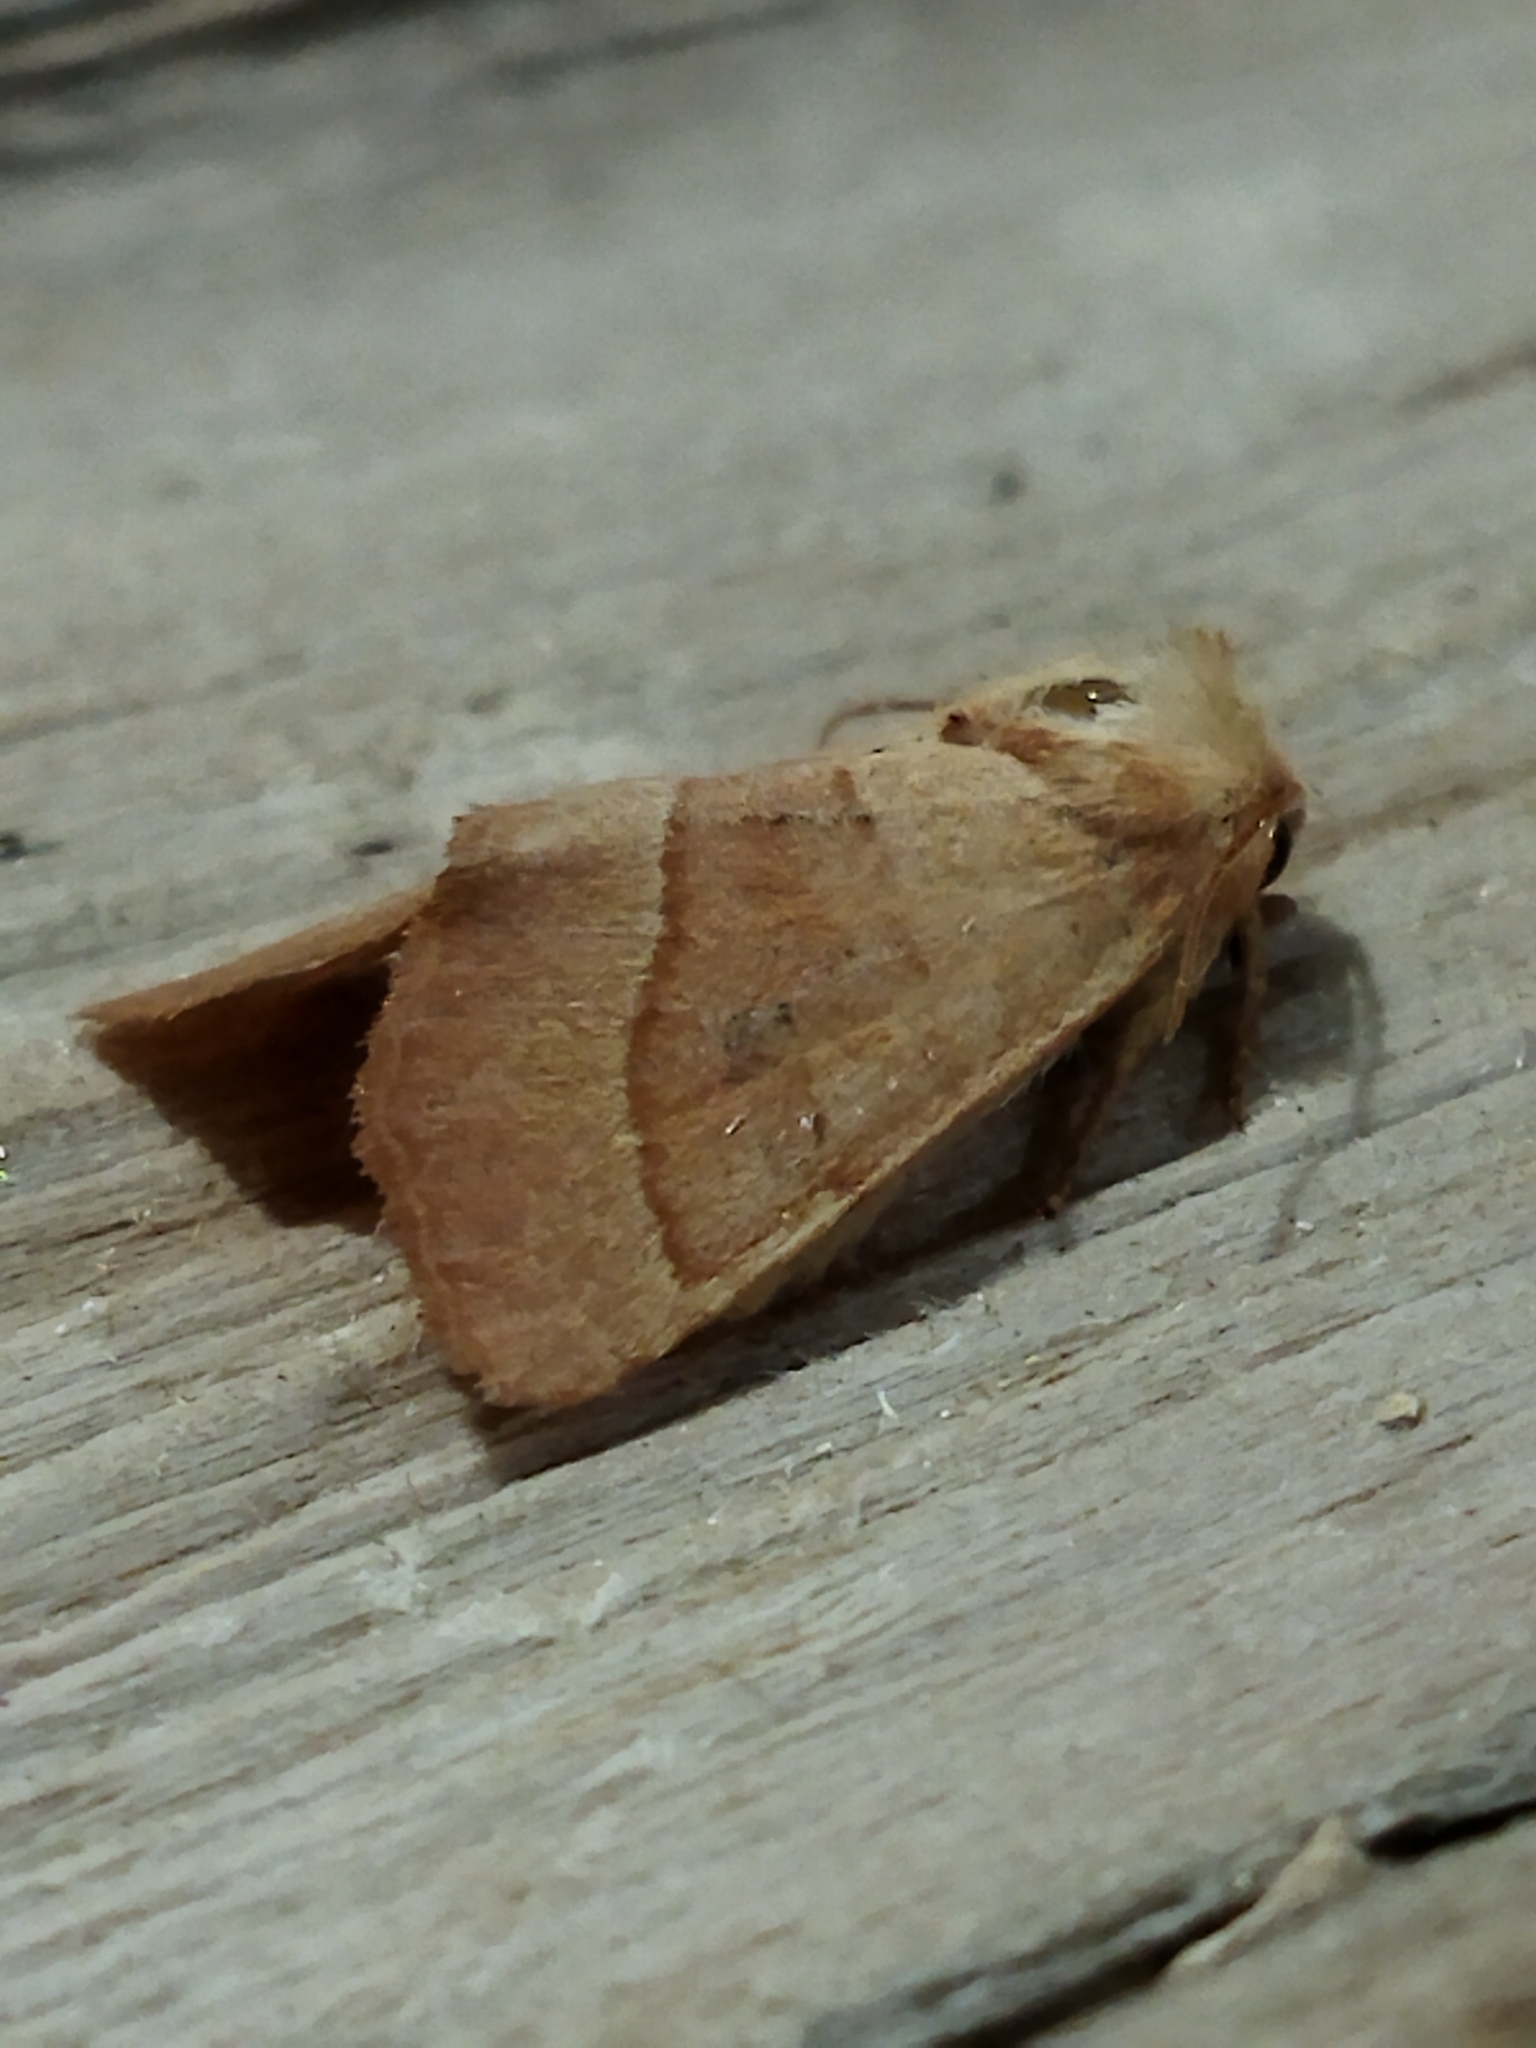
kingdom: Animalia
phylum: Arthropoda
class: Insecta
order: Lepidoptera
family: Noctuidae
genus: Atethmia
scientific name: Atethmia centrago
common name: Centre-barred sallow
